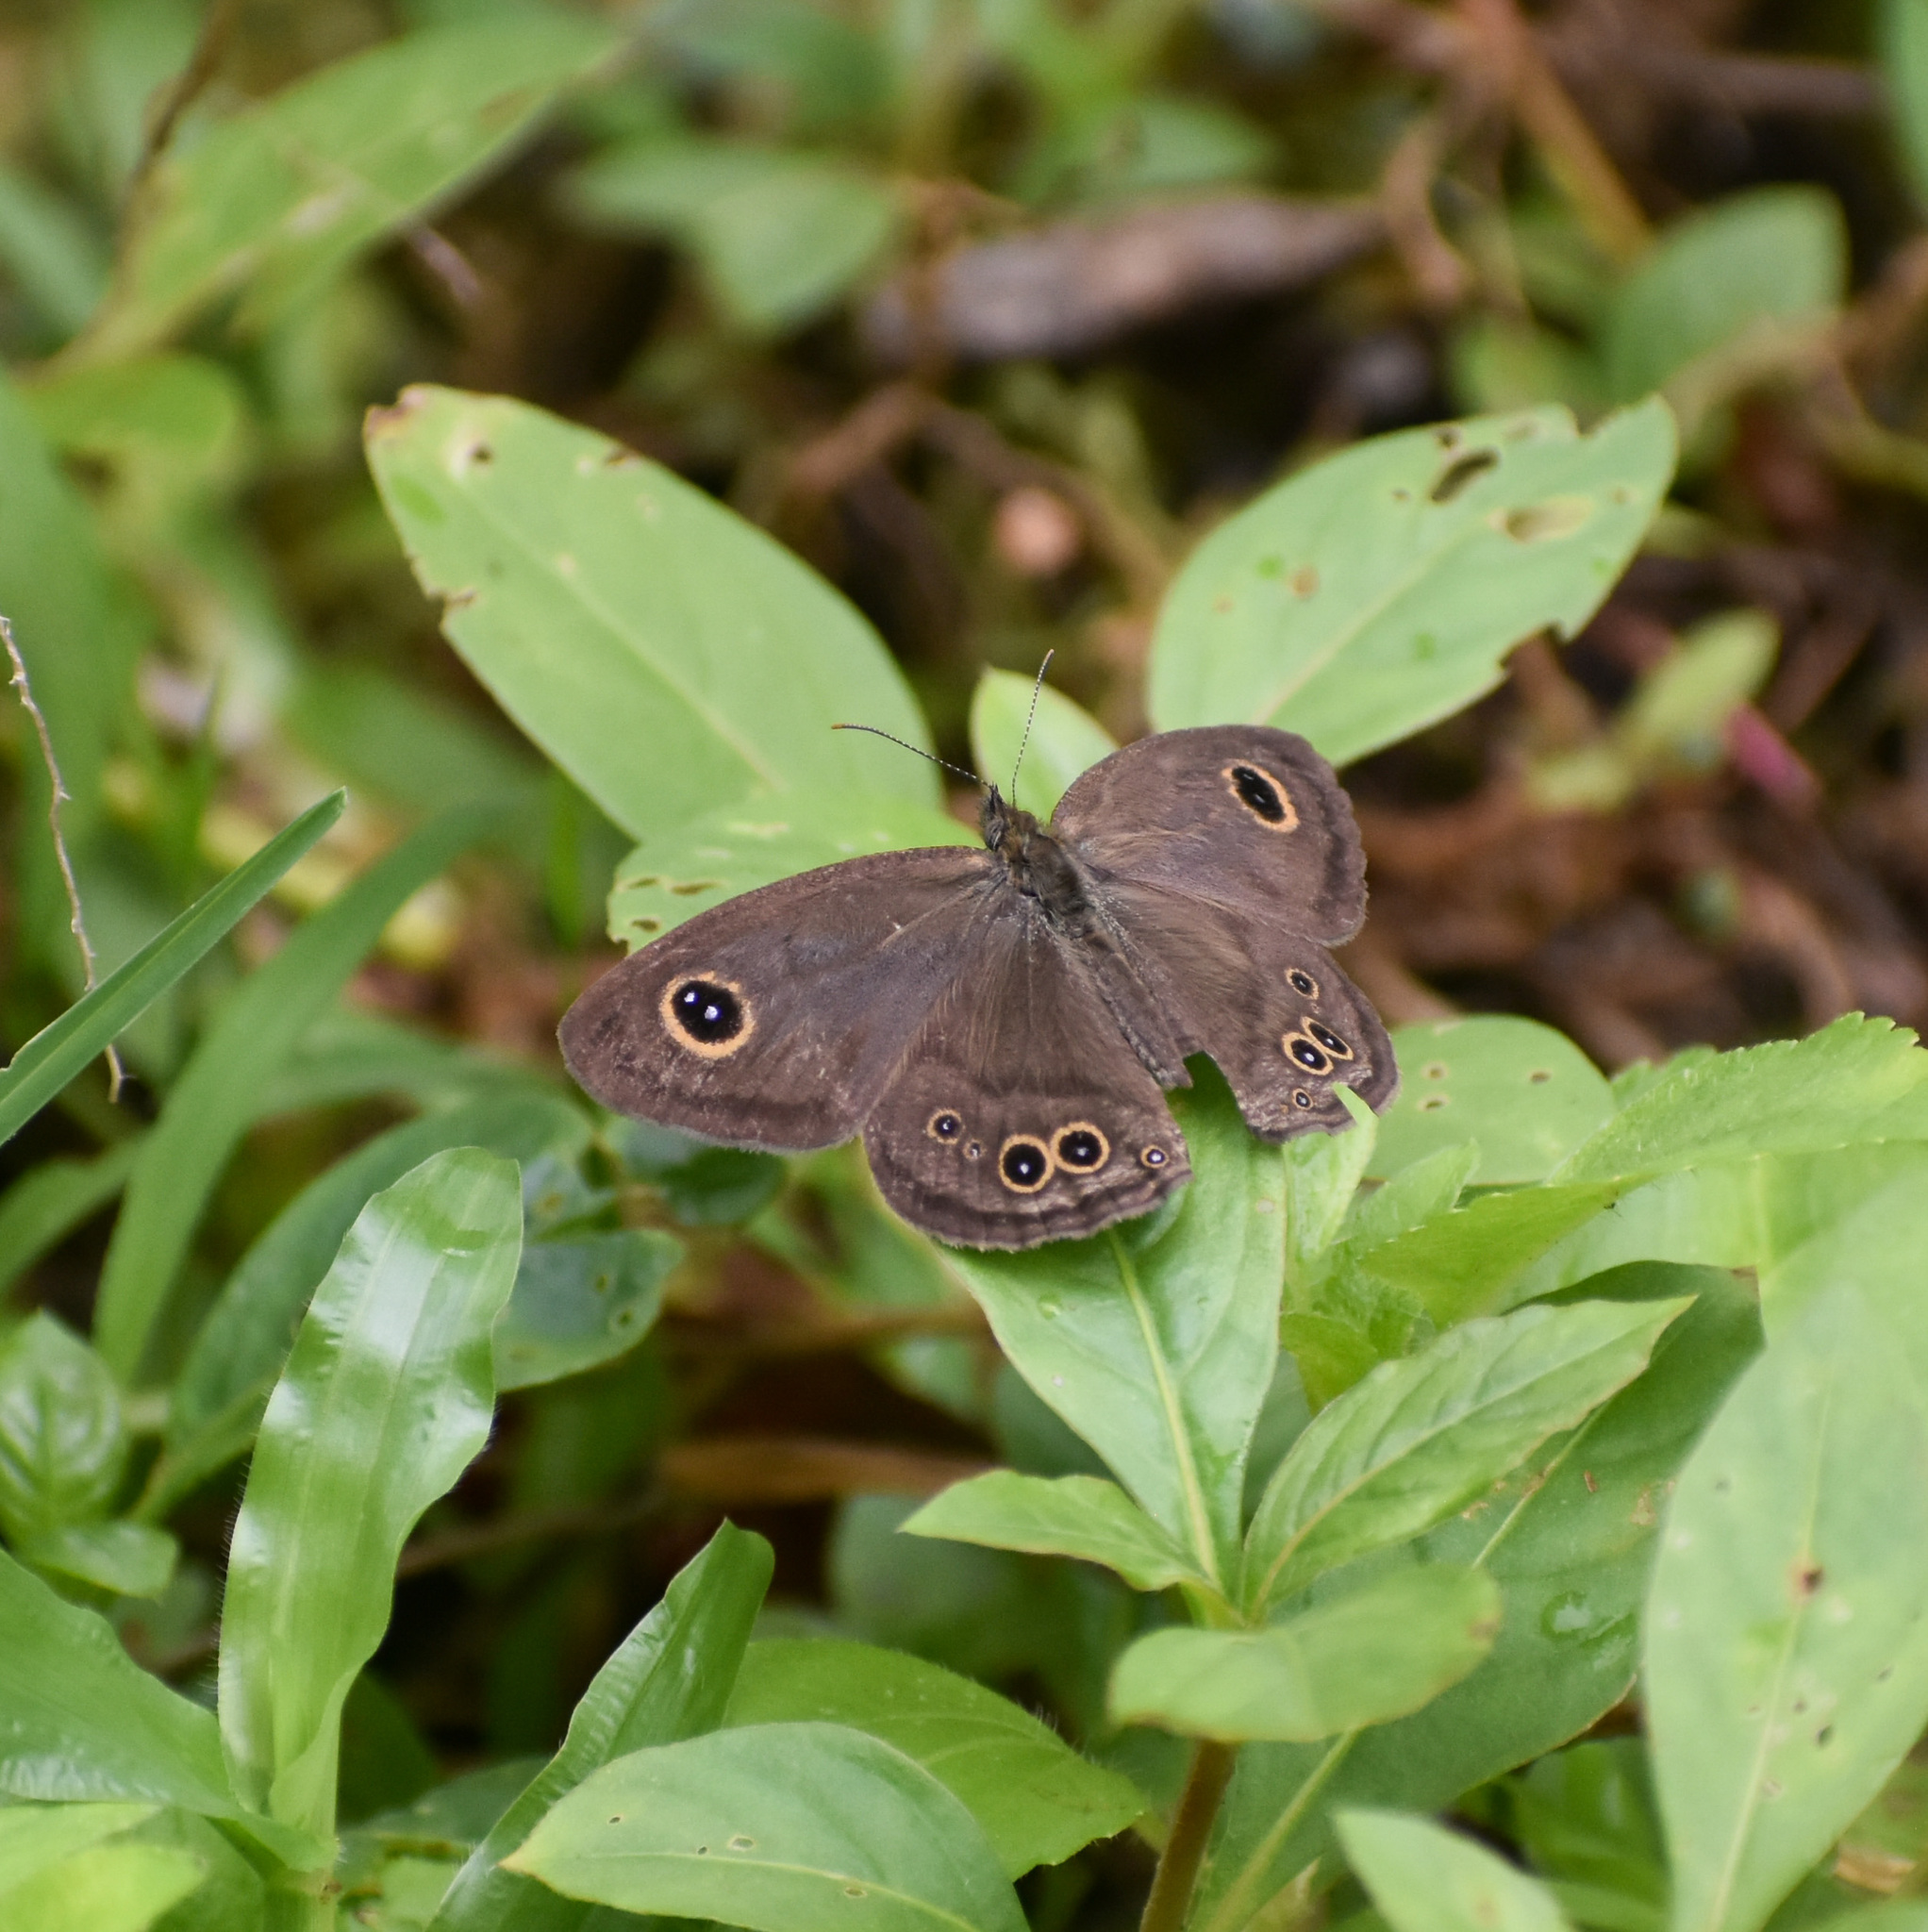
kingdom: Animalia
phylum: Arthropoda
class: Insecta
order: Lepidoptera
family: Nymphalidae
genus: Ypthima
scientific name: Ypthima baldus
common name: Common five-ring
